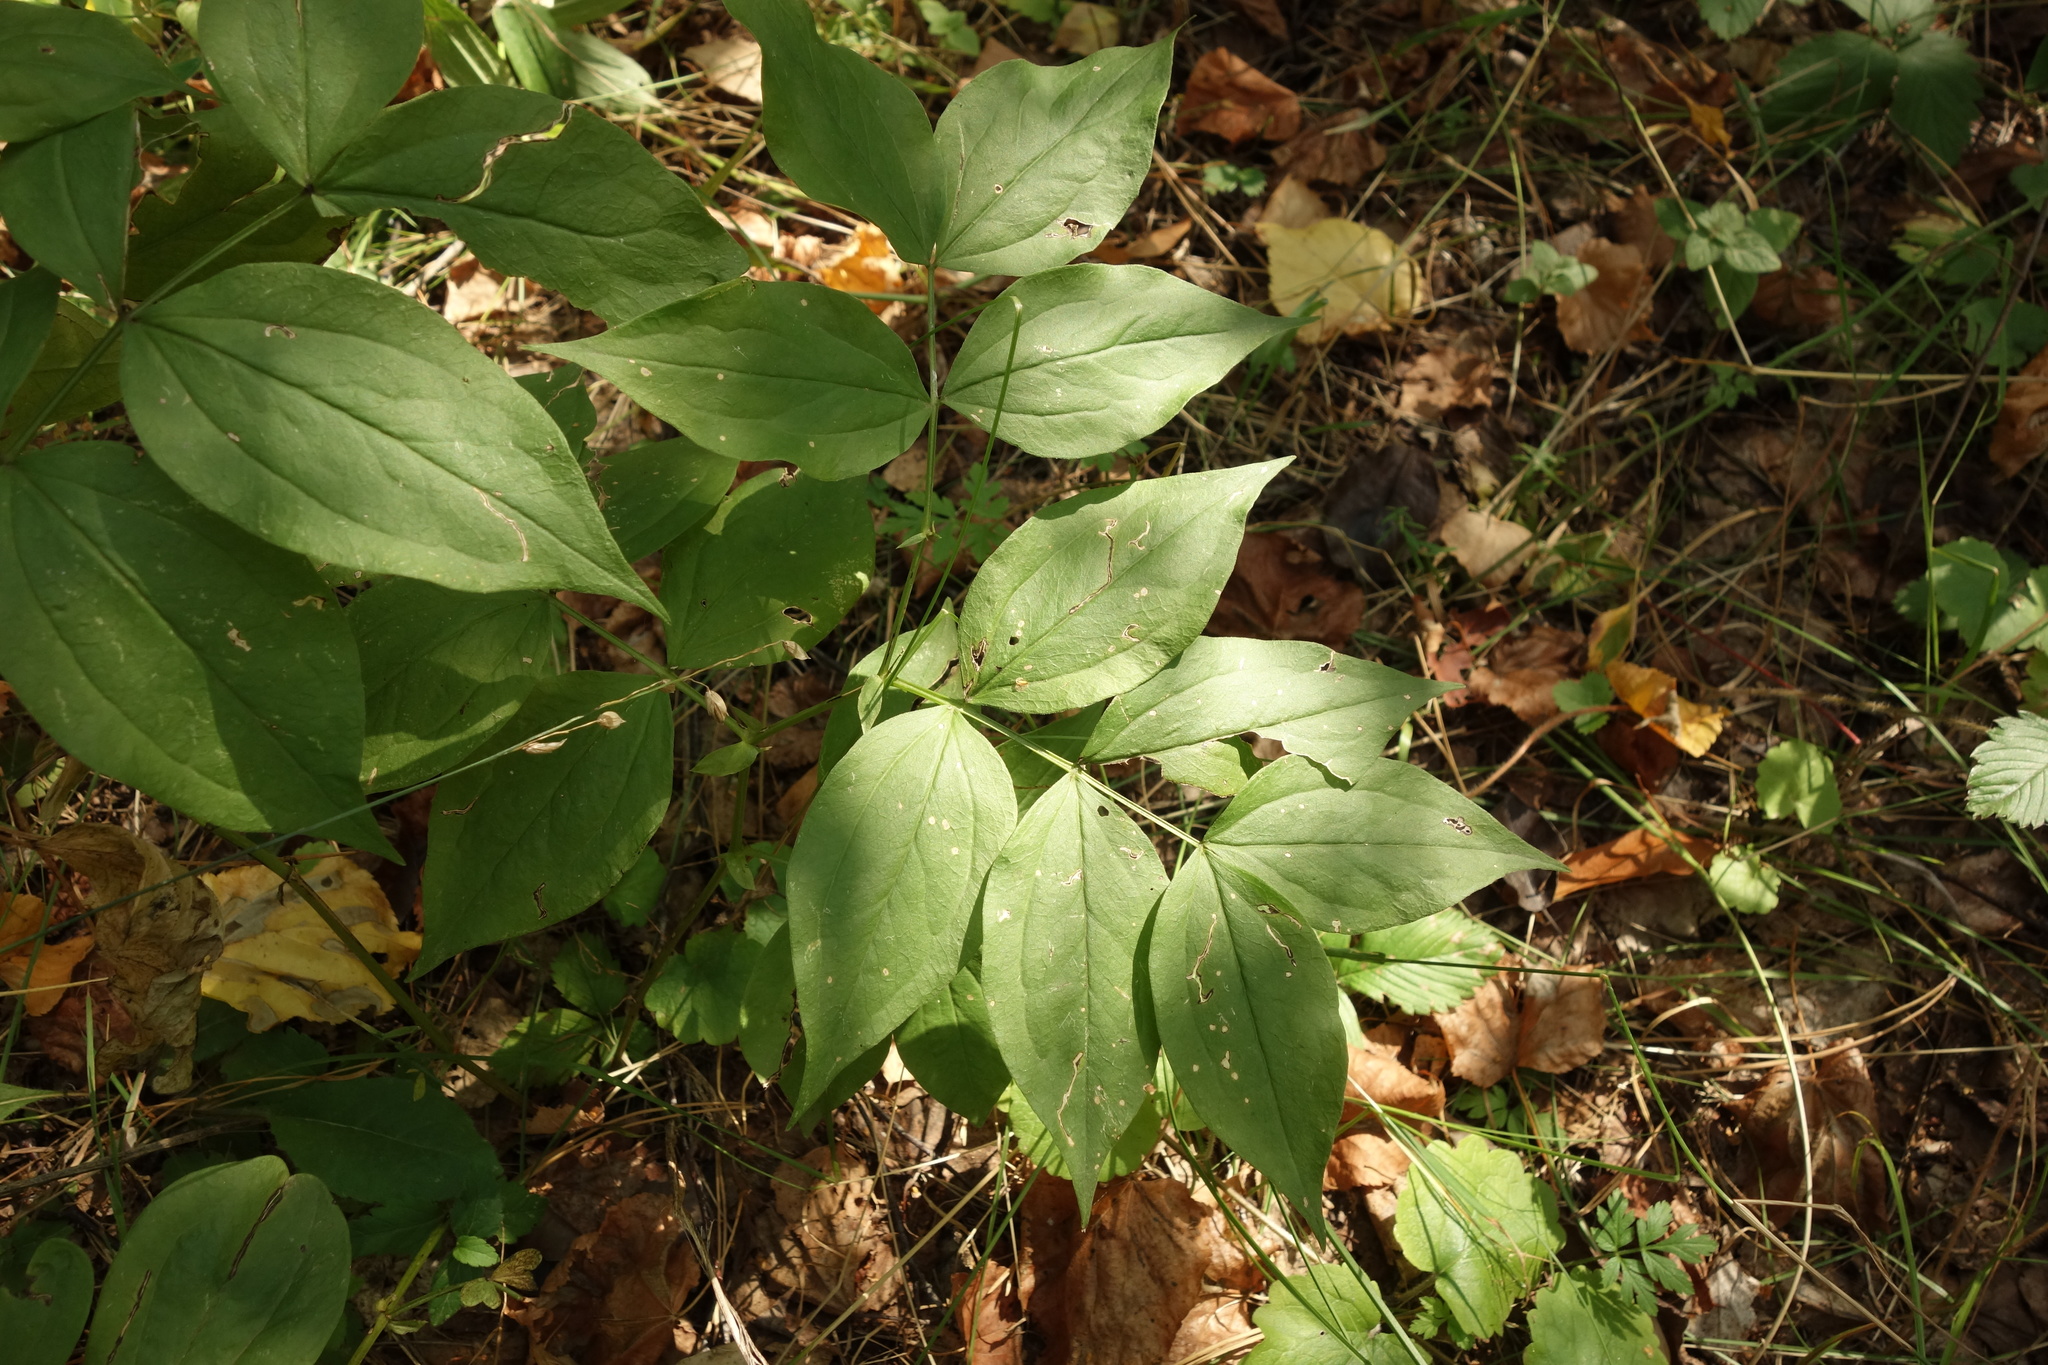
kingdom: Plantae
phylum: Tracheophyta
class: Magnoliopsida
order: Fabales
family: Fabaceae
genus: Lathyrus
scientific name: Lathyrus vernus
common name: Spring pea
